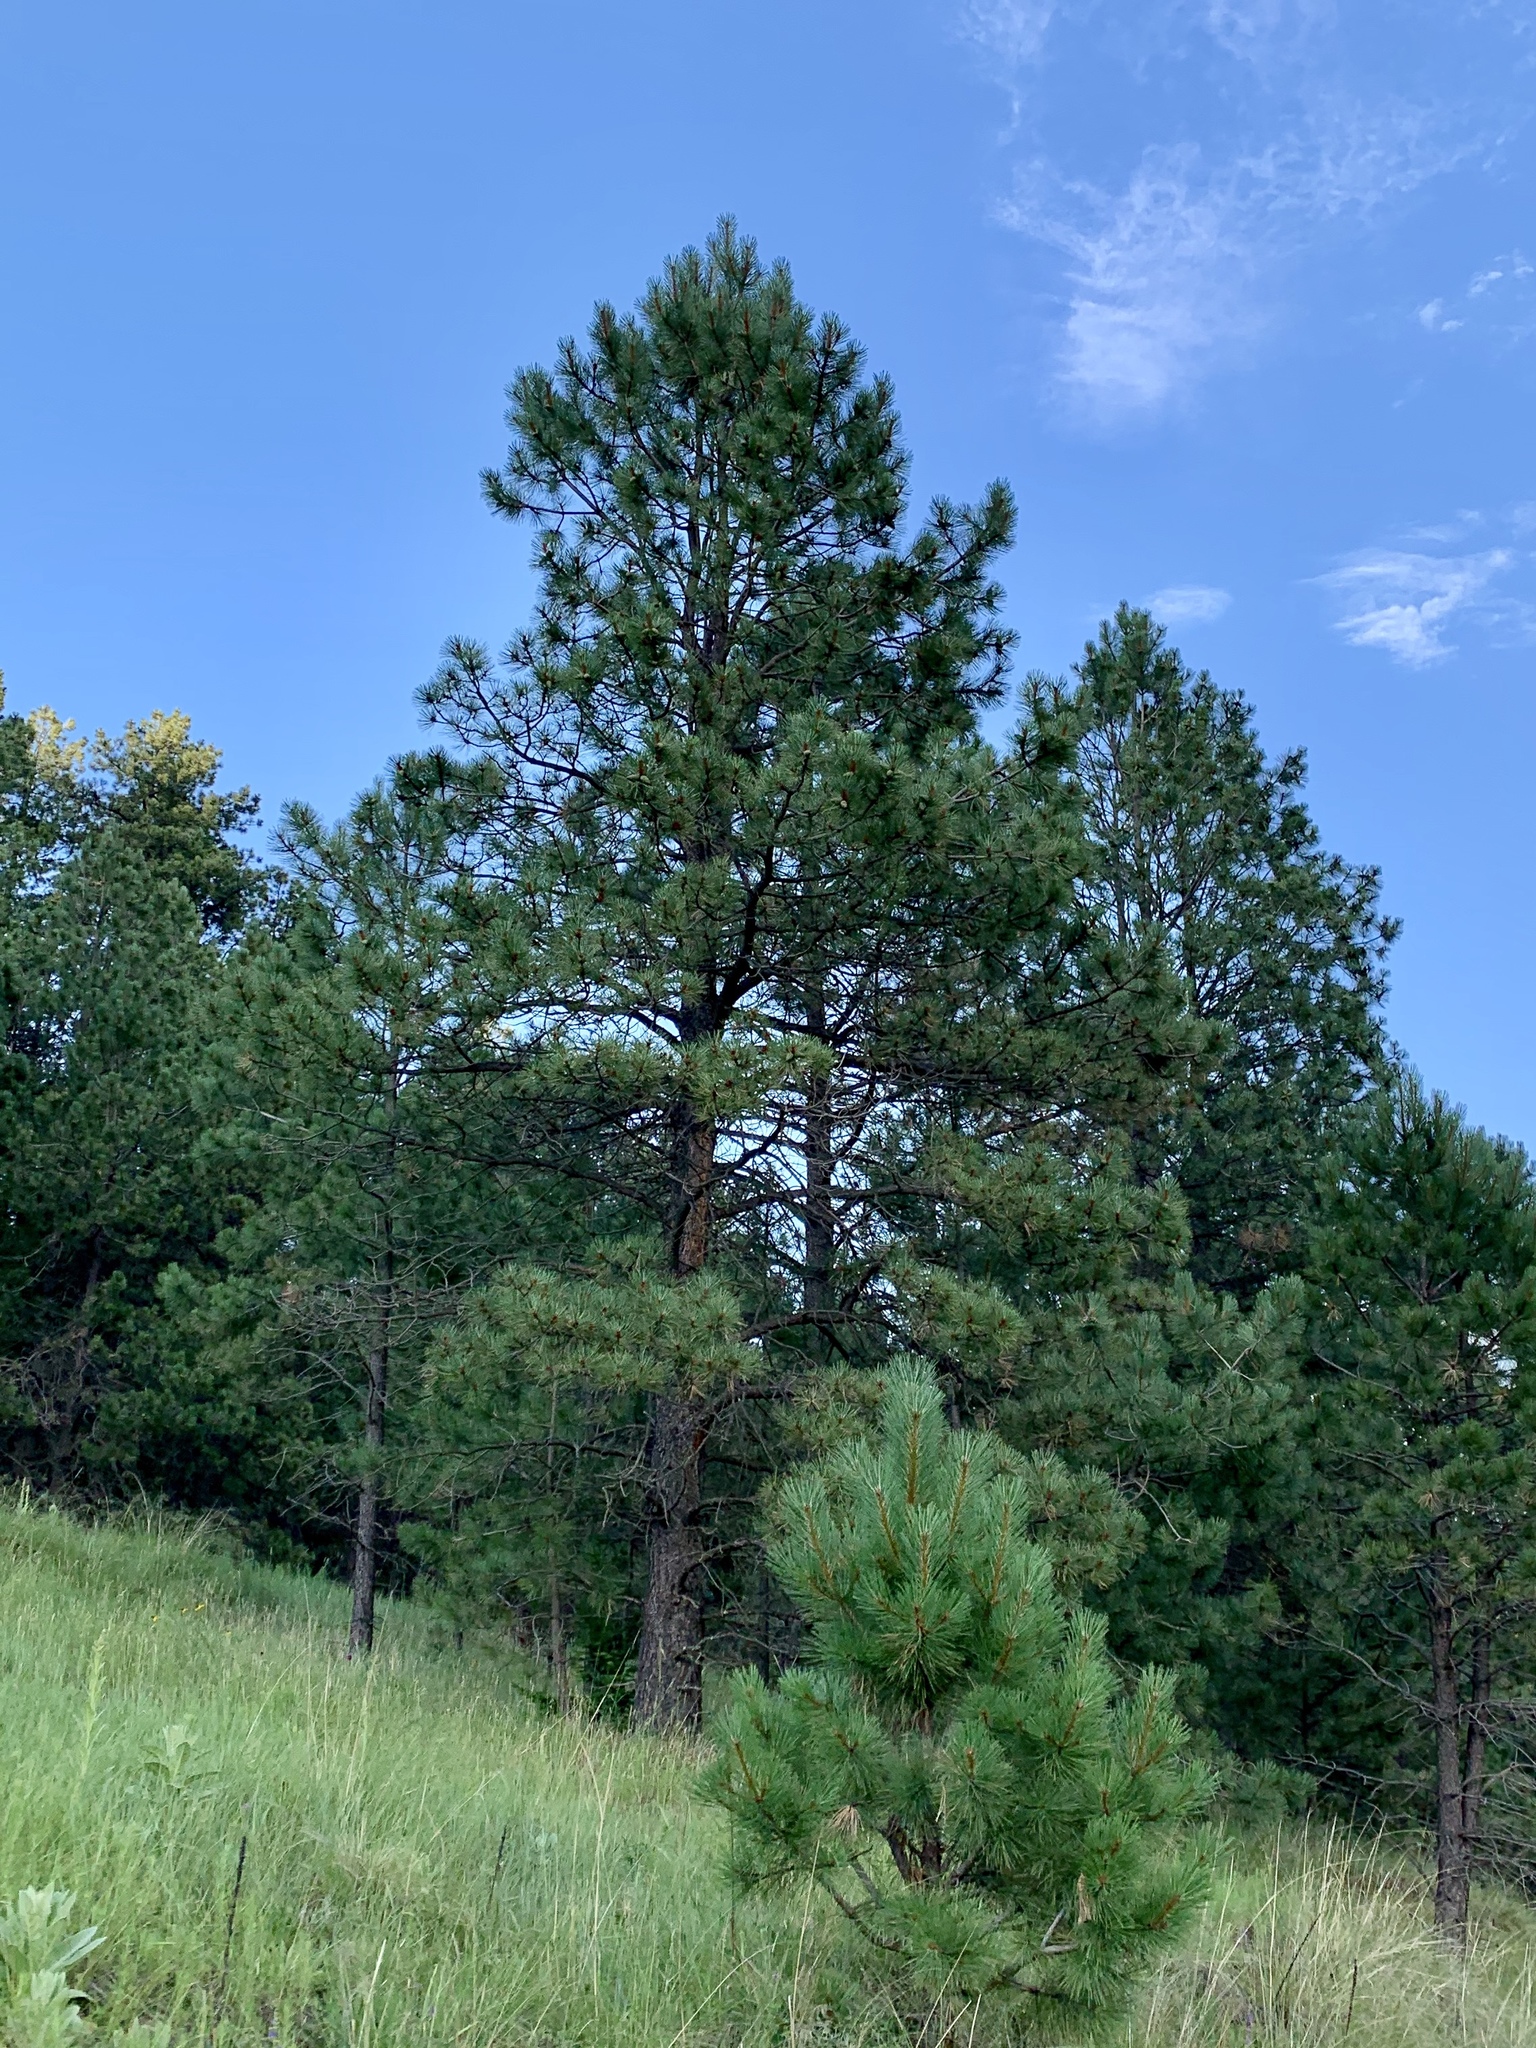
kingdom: Plantae
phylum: Tracheophyta
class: Pinopsida
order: Pinales
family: Pinaceae
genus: Pinus
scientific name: Pinus ponderosa
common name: Western yellow-pine
